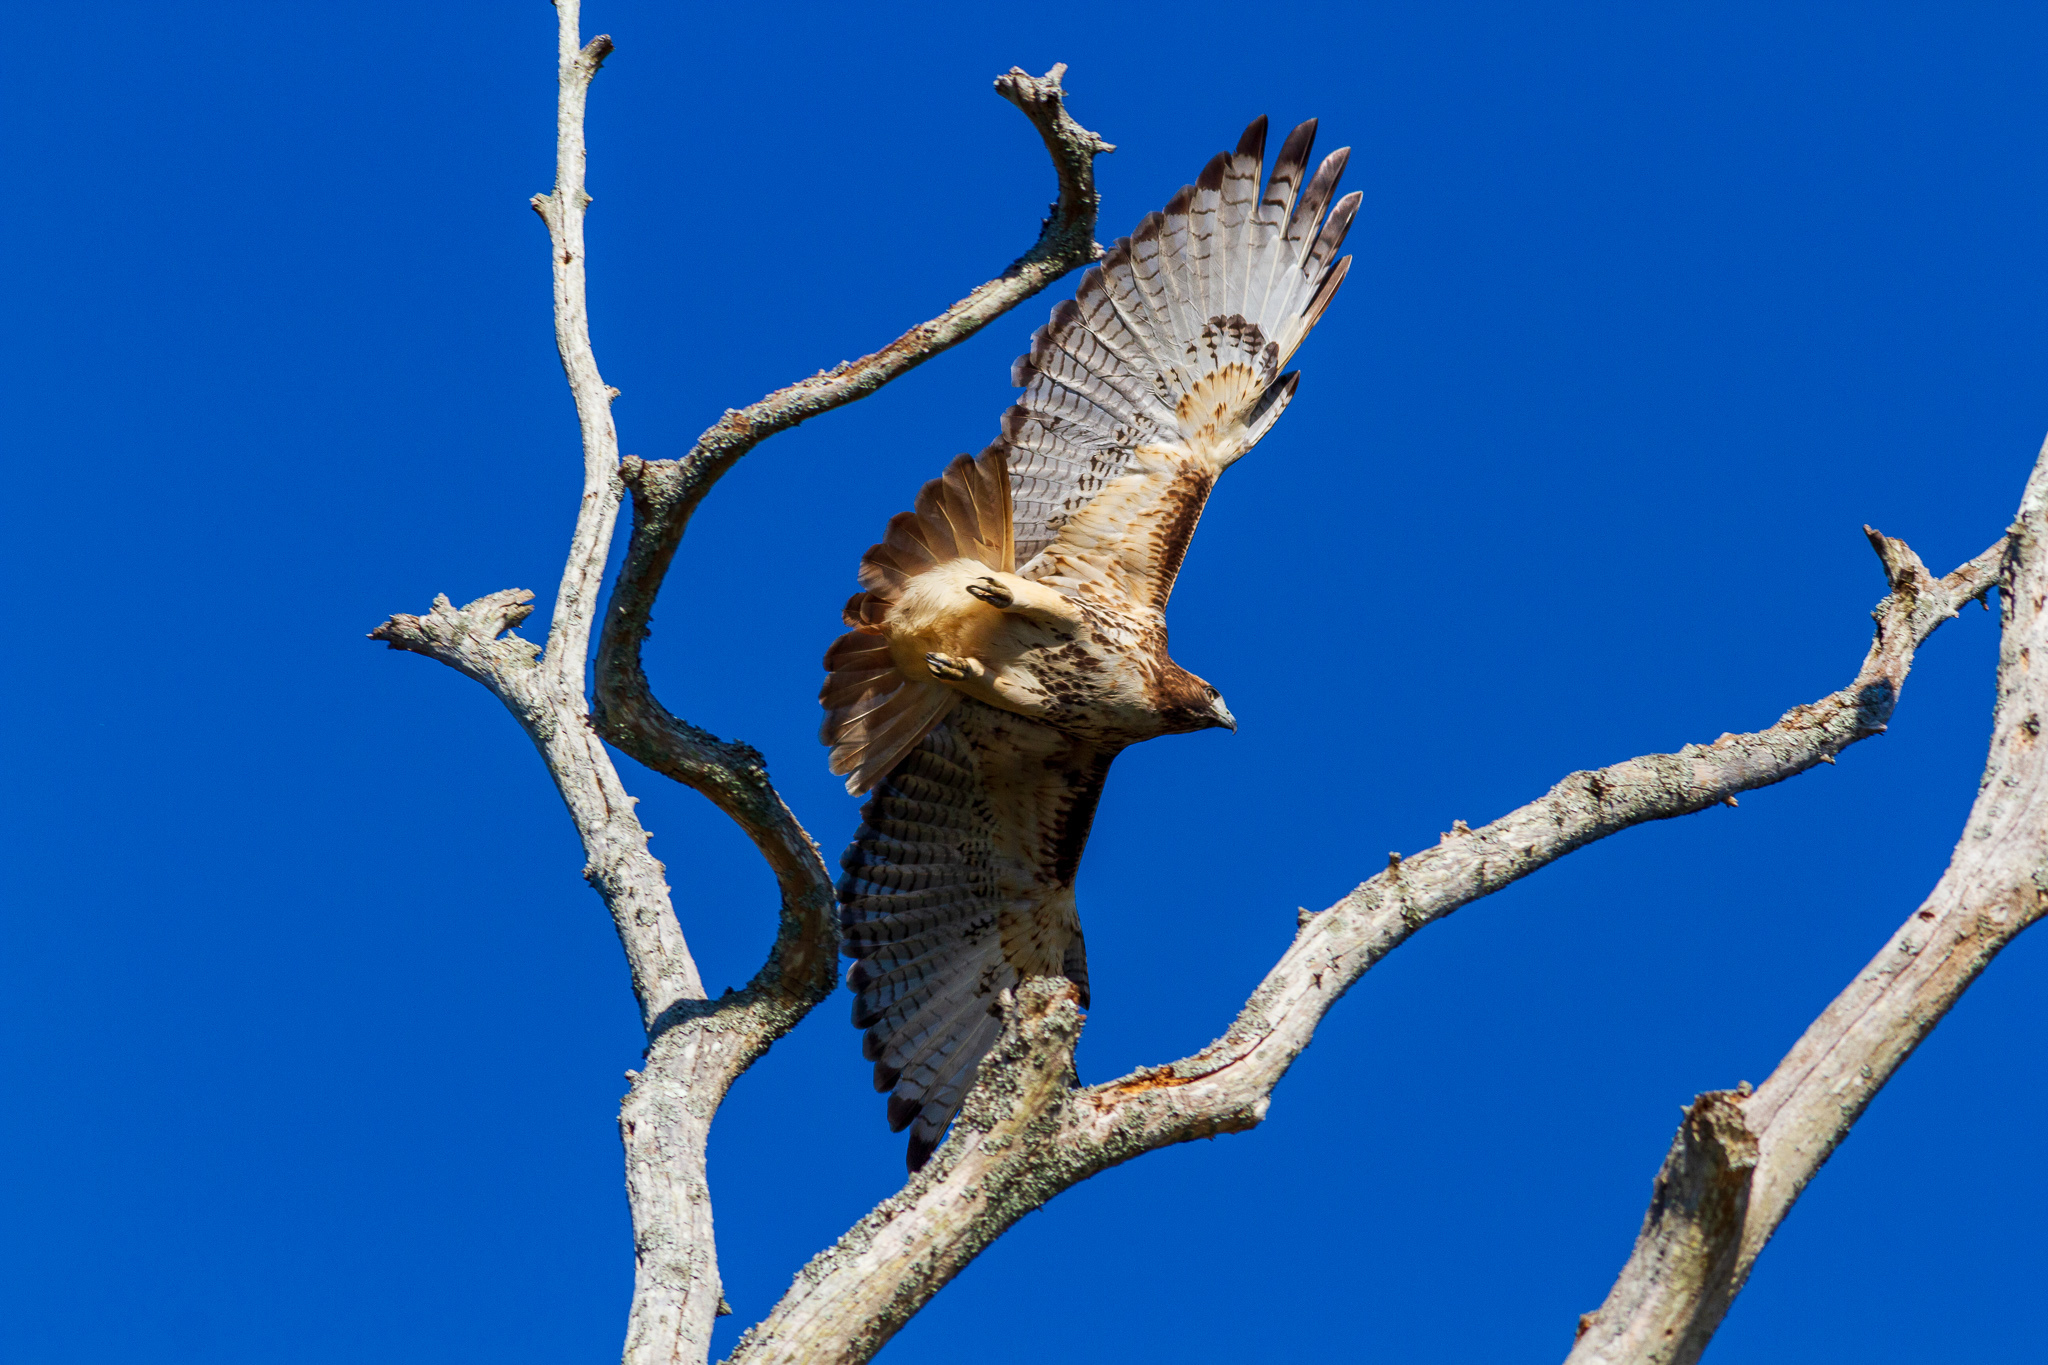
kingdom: Animalia
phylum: Chordata
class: Aves
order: Accipitriformes
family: Accipitridae
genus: Buteo
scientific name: Buteo jamaicensis
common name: Red-tailed hawk
